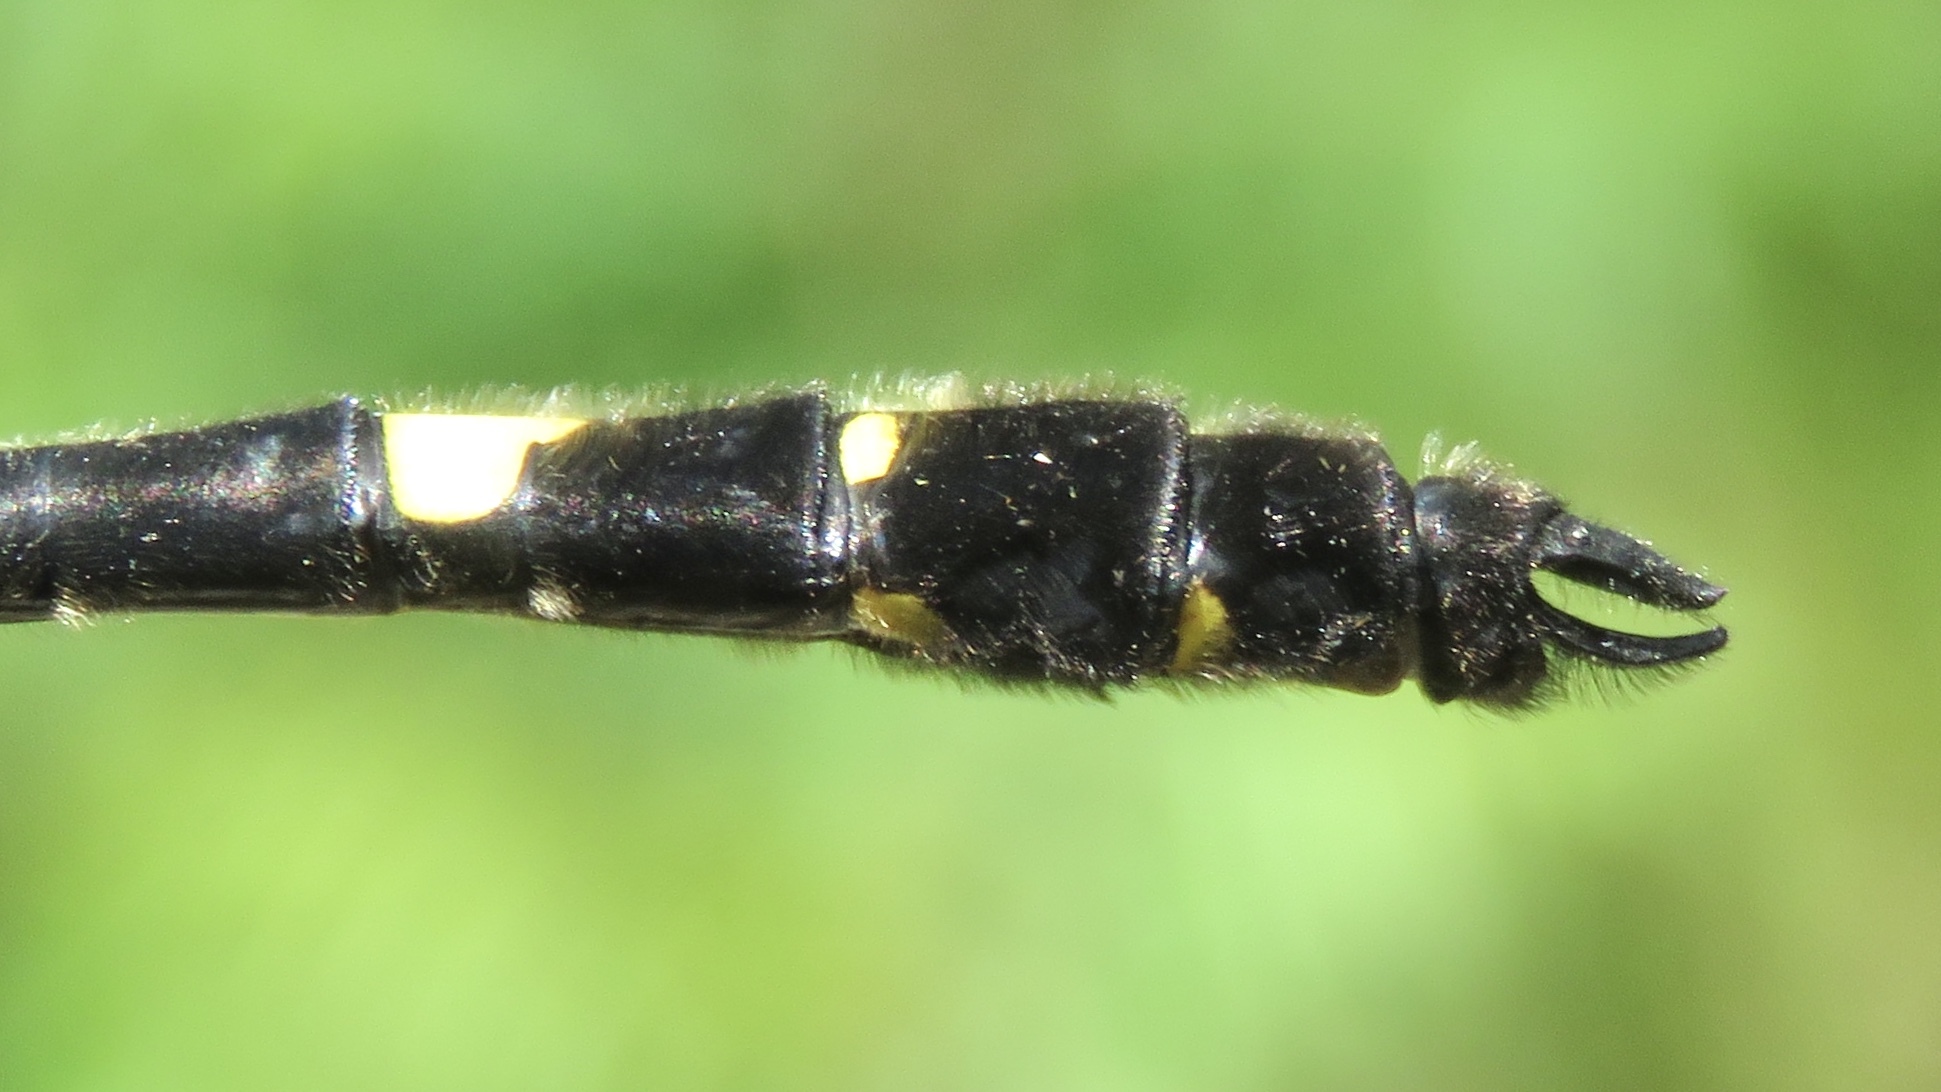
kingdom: Animalia
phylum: Arthropoda
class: Insecta
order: Odonata
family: Macromiidae
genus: Macromia
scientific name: Macromia illinoiensis
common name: Swift river cruiser
